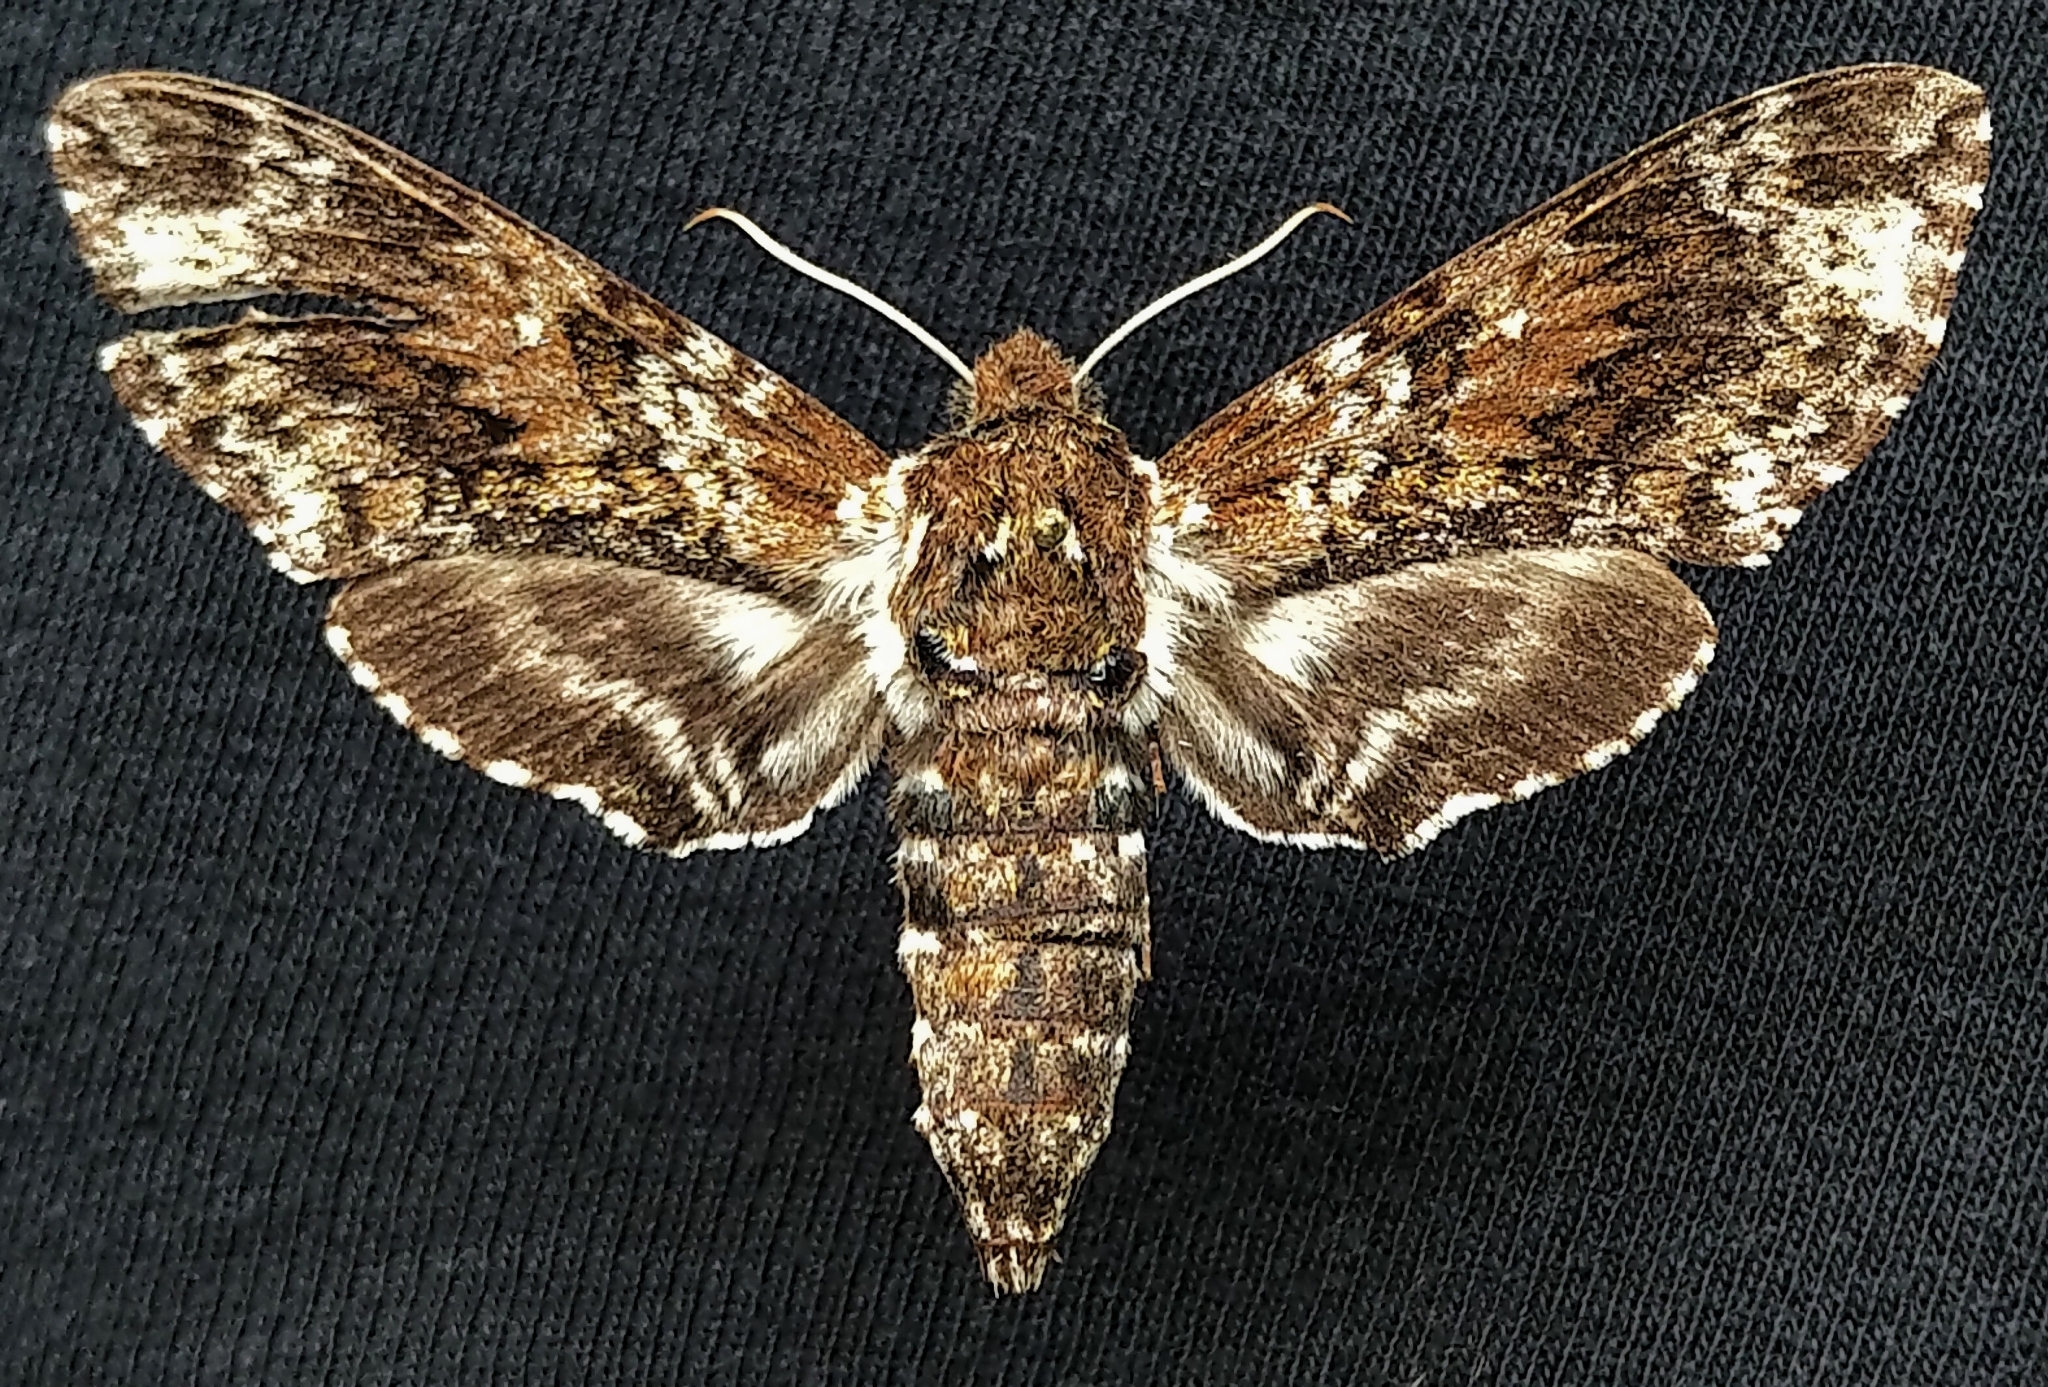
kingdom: Animalia
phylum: Arthropoda
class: Insecta
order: Lepidoptera
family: Sphingidae
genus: Dolba
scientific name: Dolba hyloeus
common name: Pawpaw sphinx
